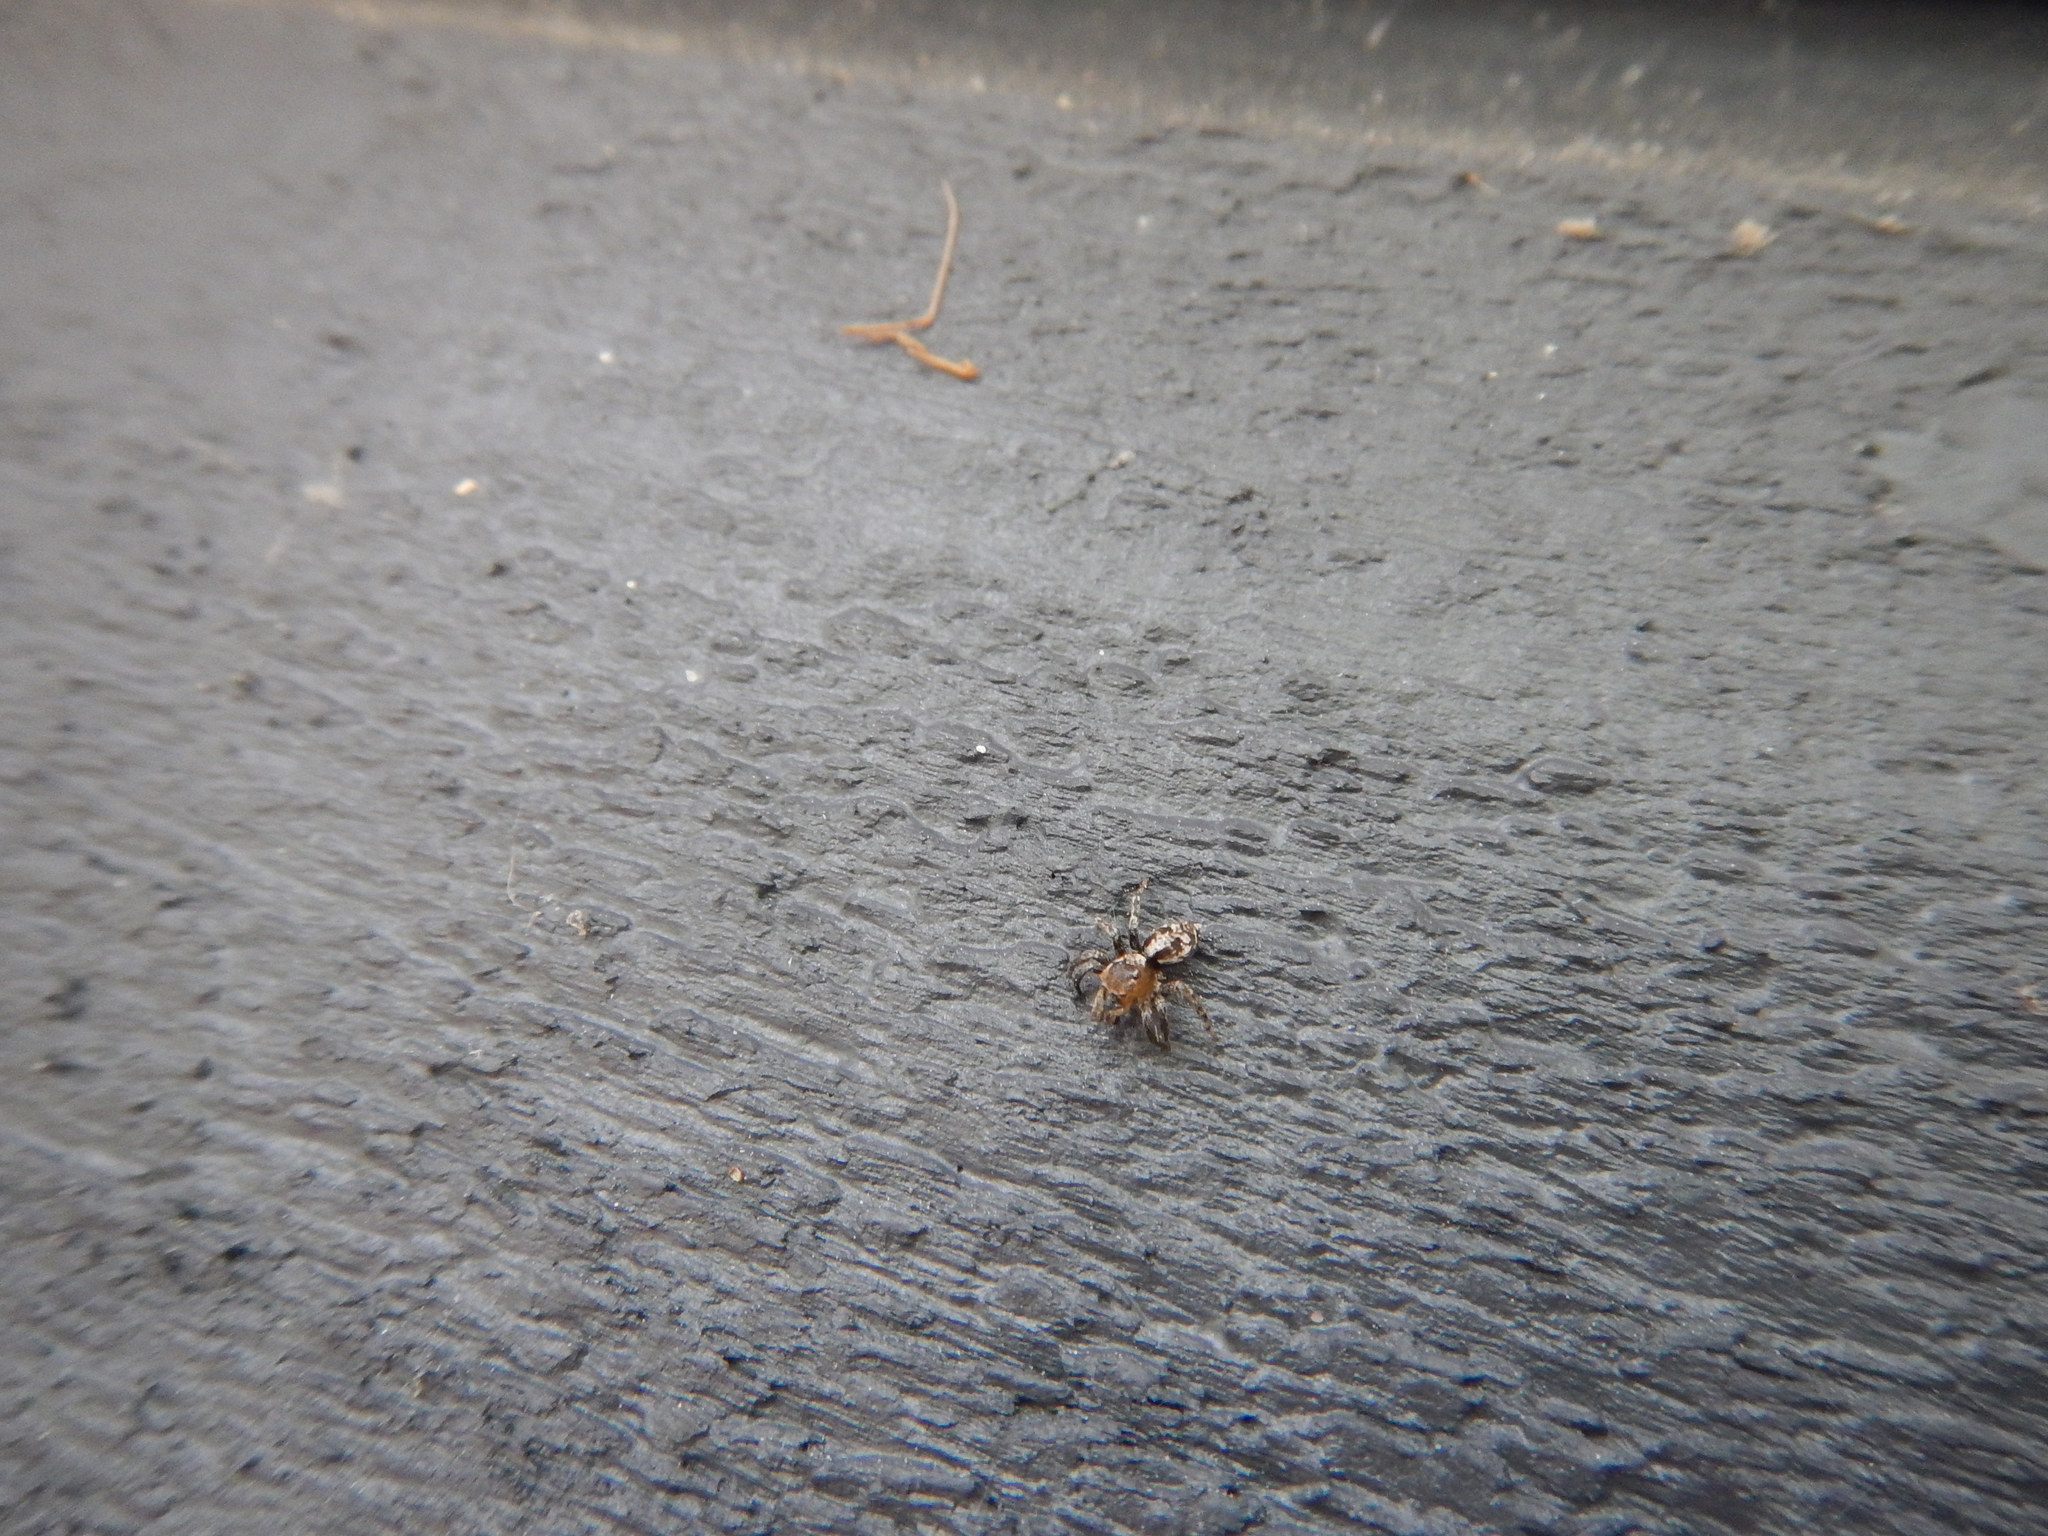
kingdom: Animalia
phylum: Arthropoda
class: Arachnida
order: Araneae
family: Salticidae
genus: Naphrys
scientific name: Naphrys pulex
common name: Flea jumping spider
